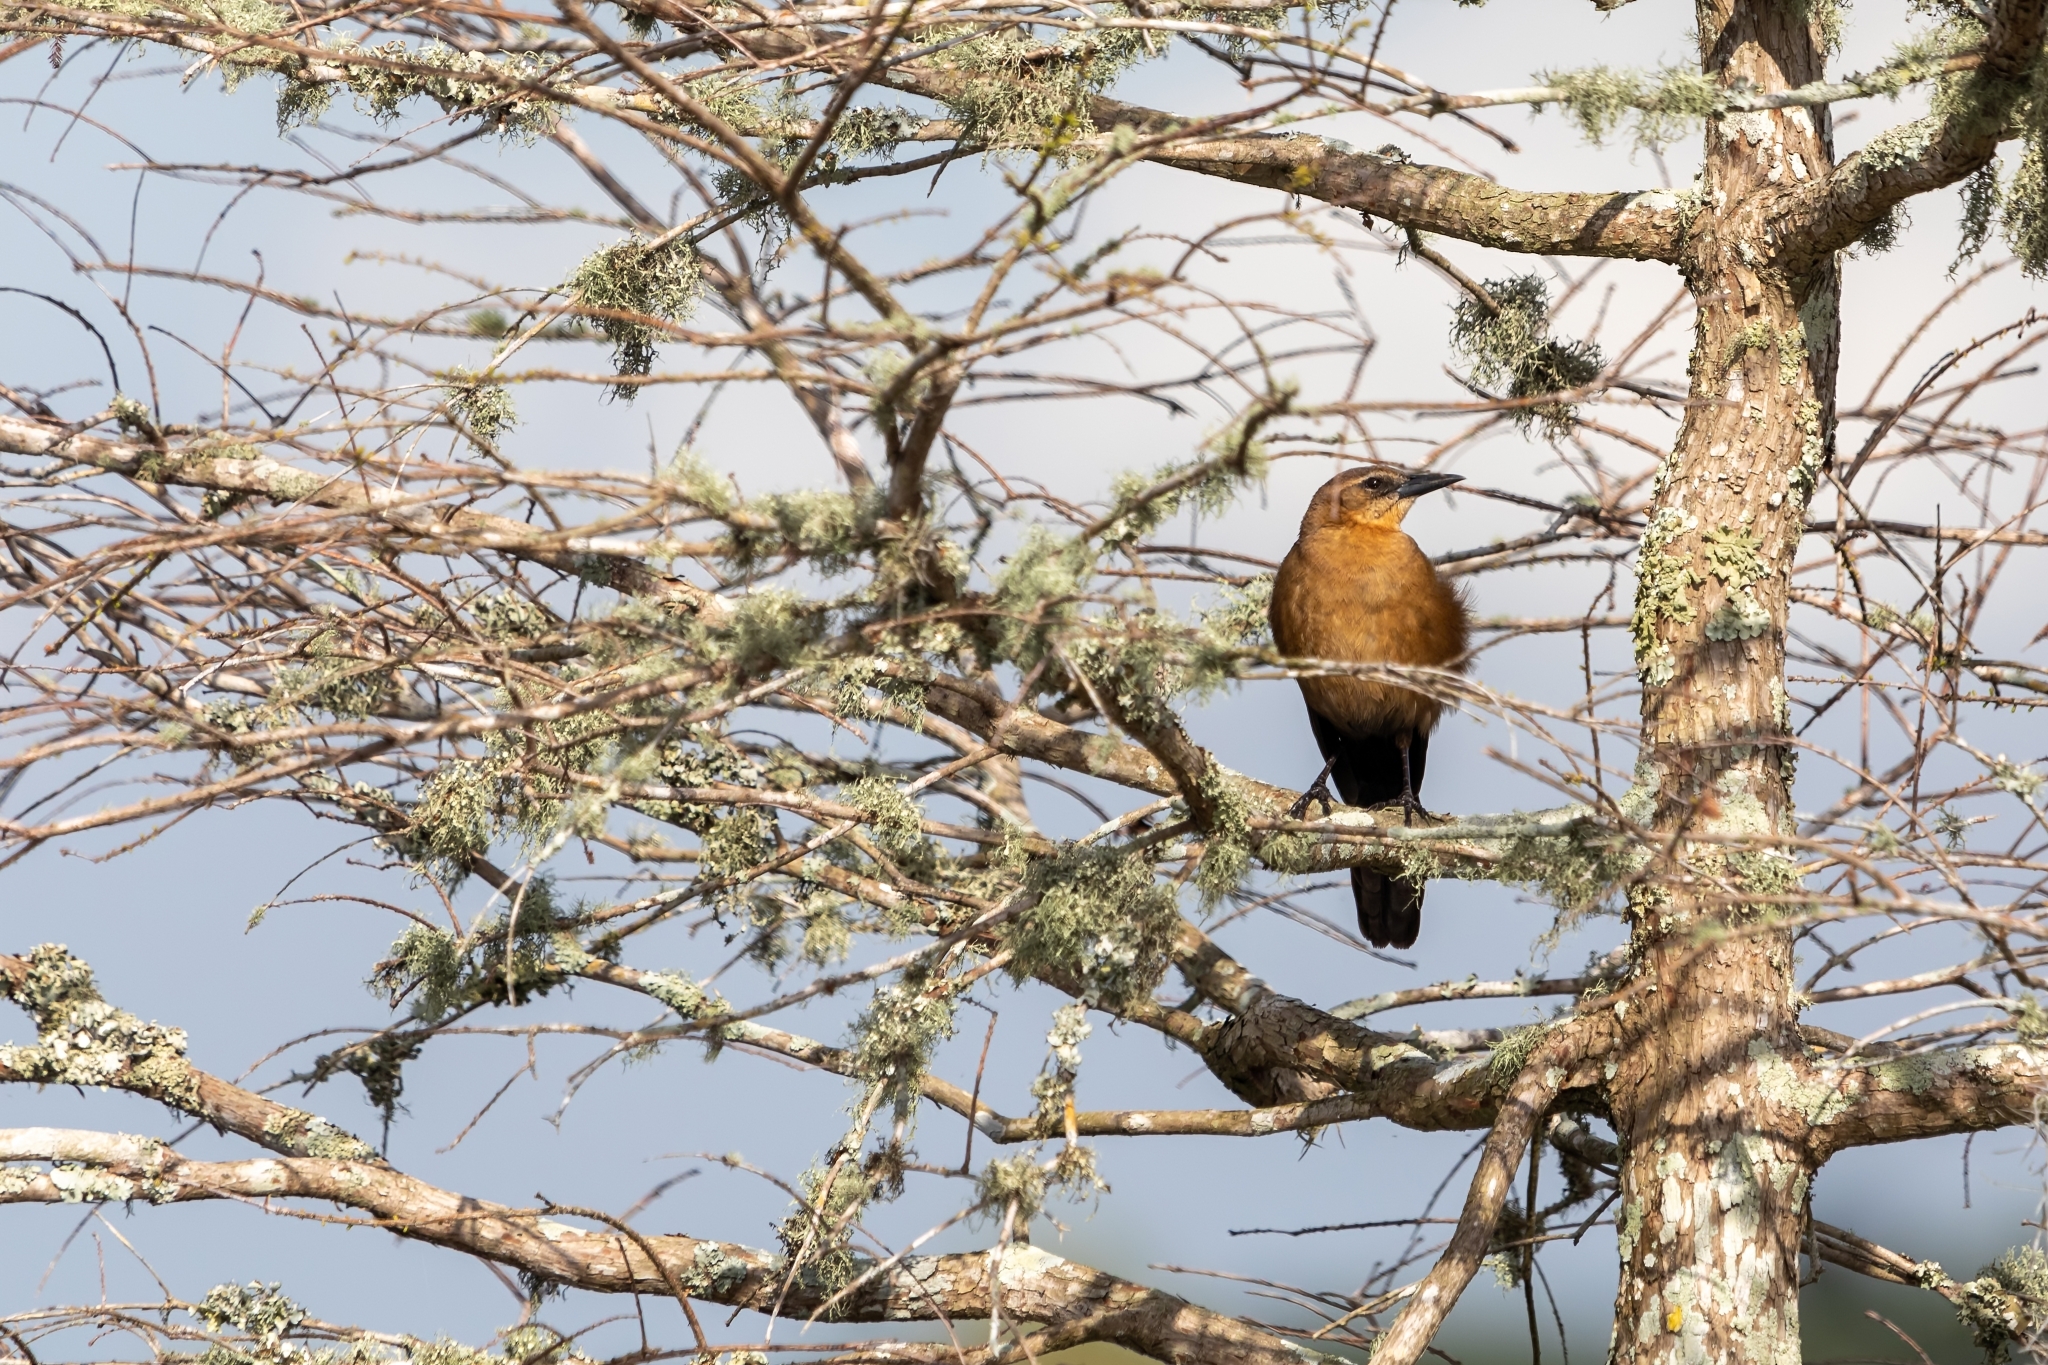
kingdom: Animalia
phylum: Chordata
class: Aves
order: Passeriformes
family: Icteridae
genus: Quiscalus
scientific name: Quiscalus major
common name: Boat-tailed grackle
